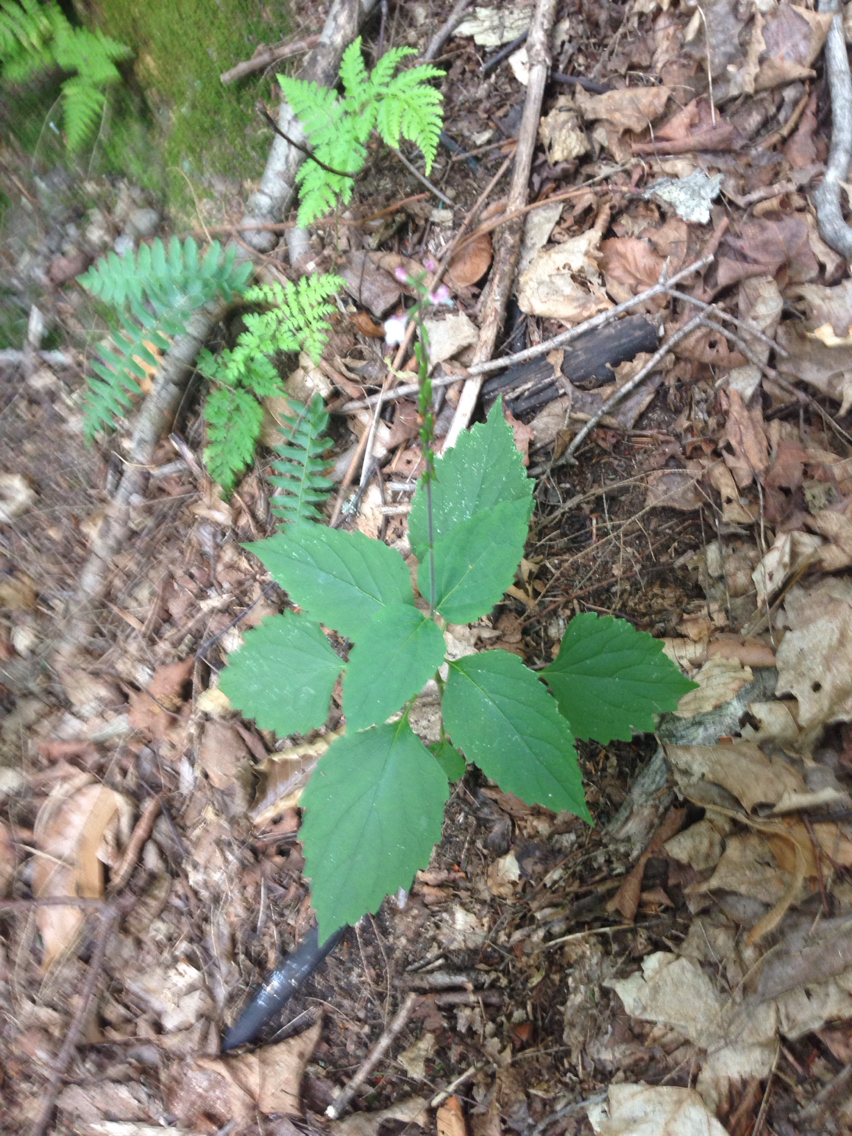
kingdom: Plantae
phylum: Tracheophyta
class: Magnoliopsida
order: Lamiales
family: Phrymaceae
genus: Phryma
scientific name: Phryma leptostachya
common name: American lopseed
